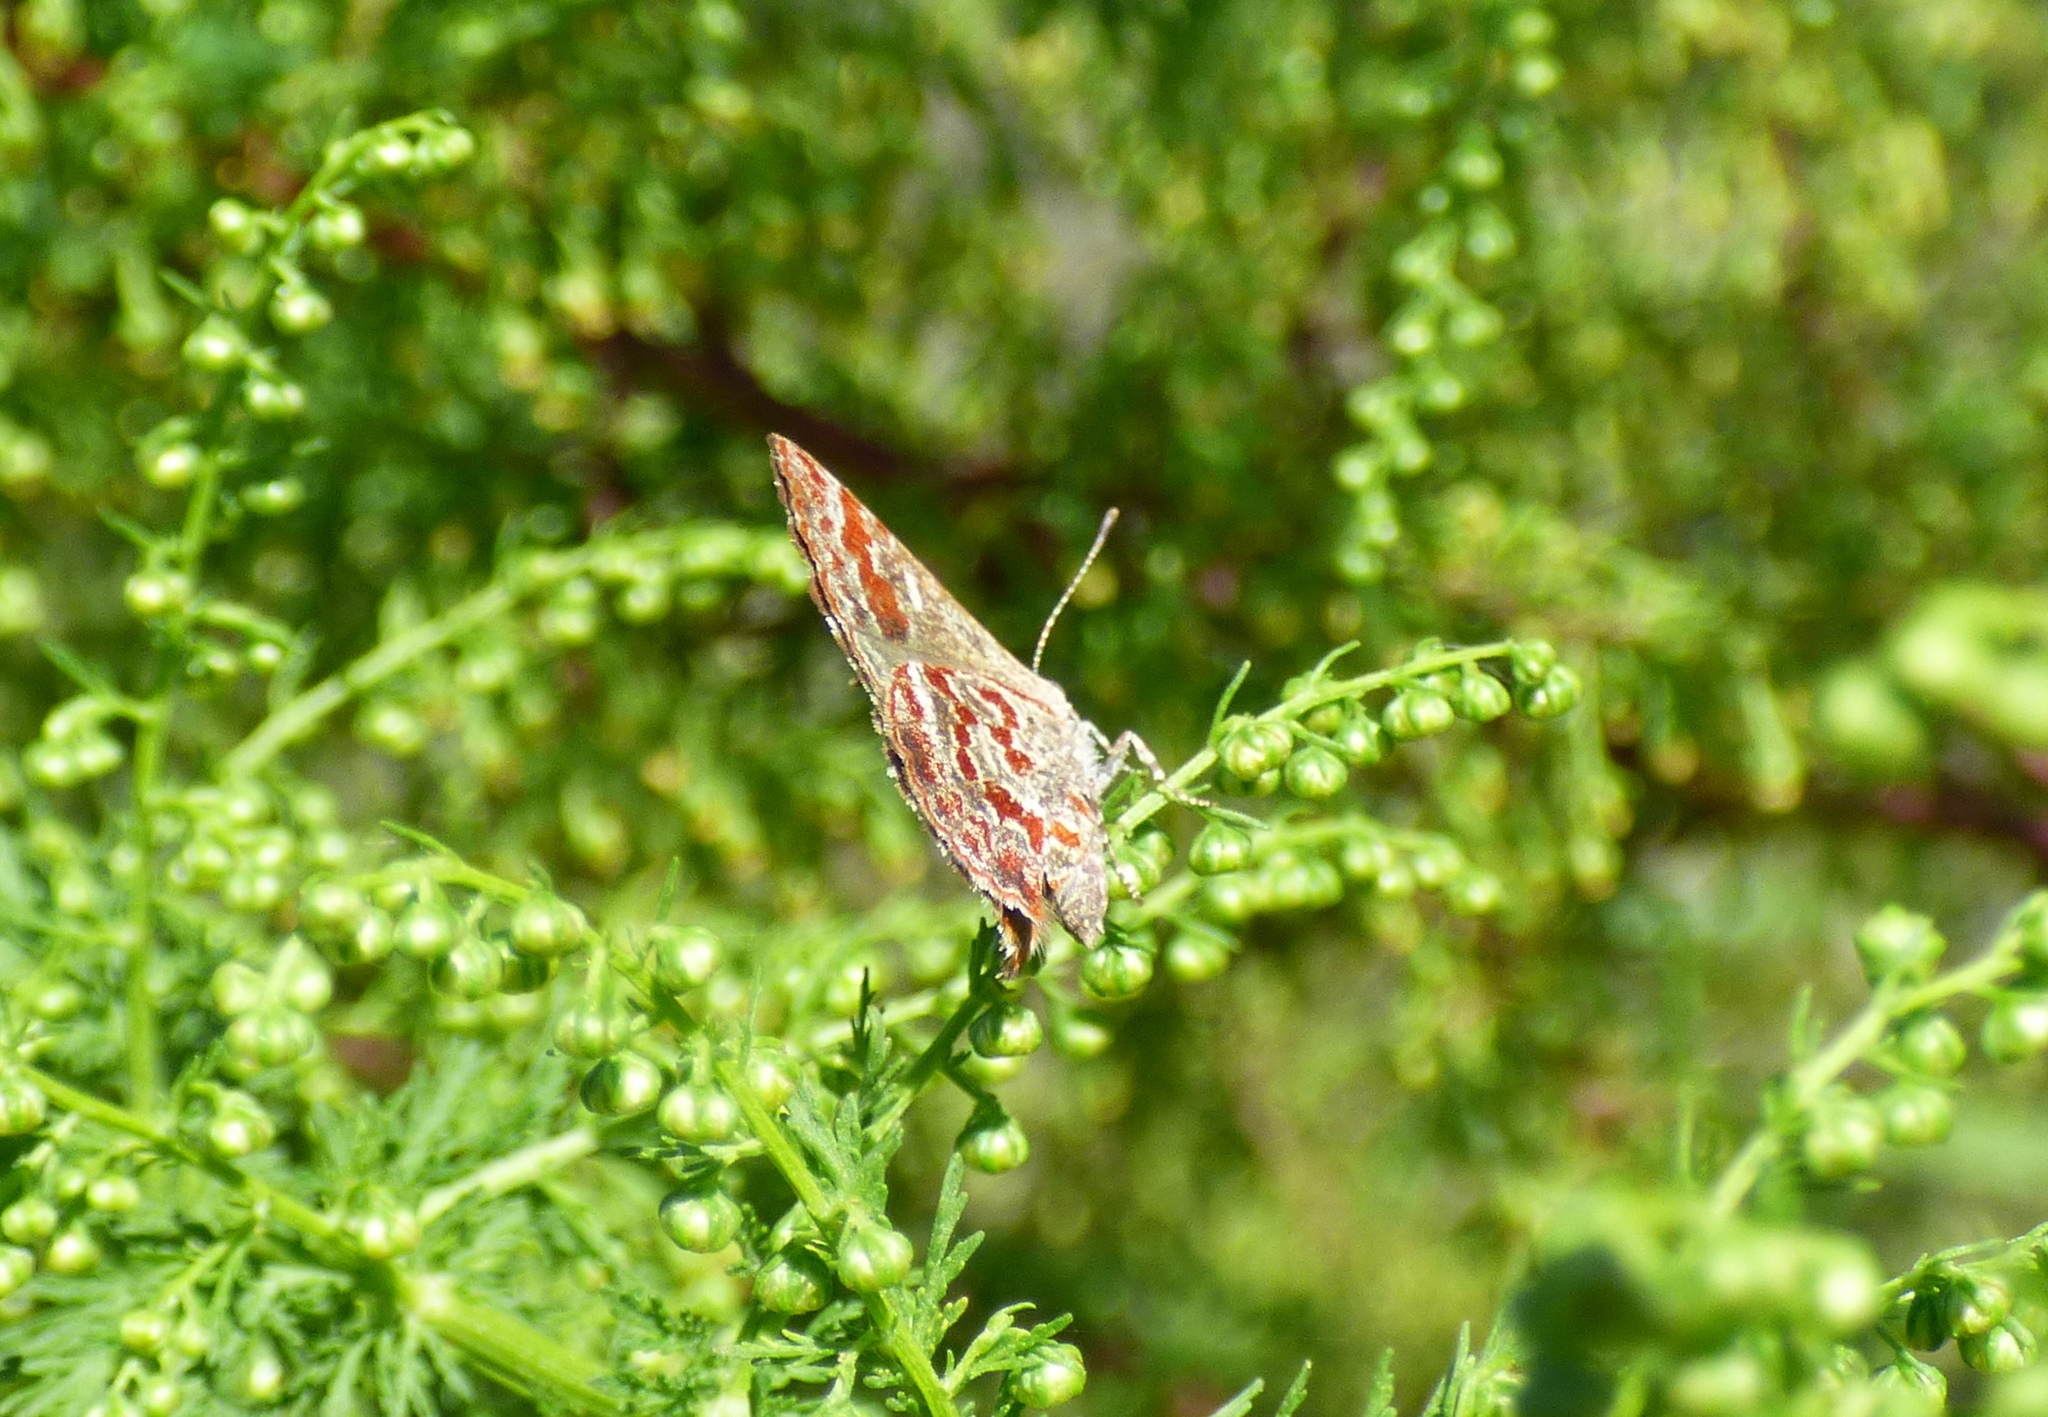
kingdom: Animalia
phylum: Arthropoda
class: Insecta
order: Lepidoptera
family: Lycaenidae
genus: Ministrymon
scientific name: Ministrymon
